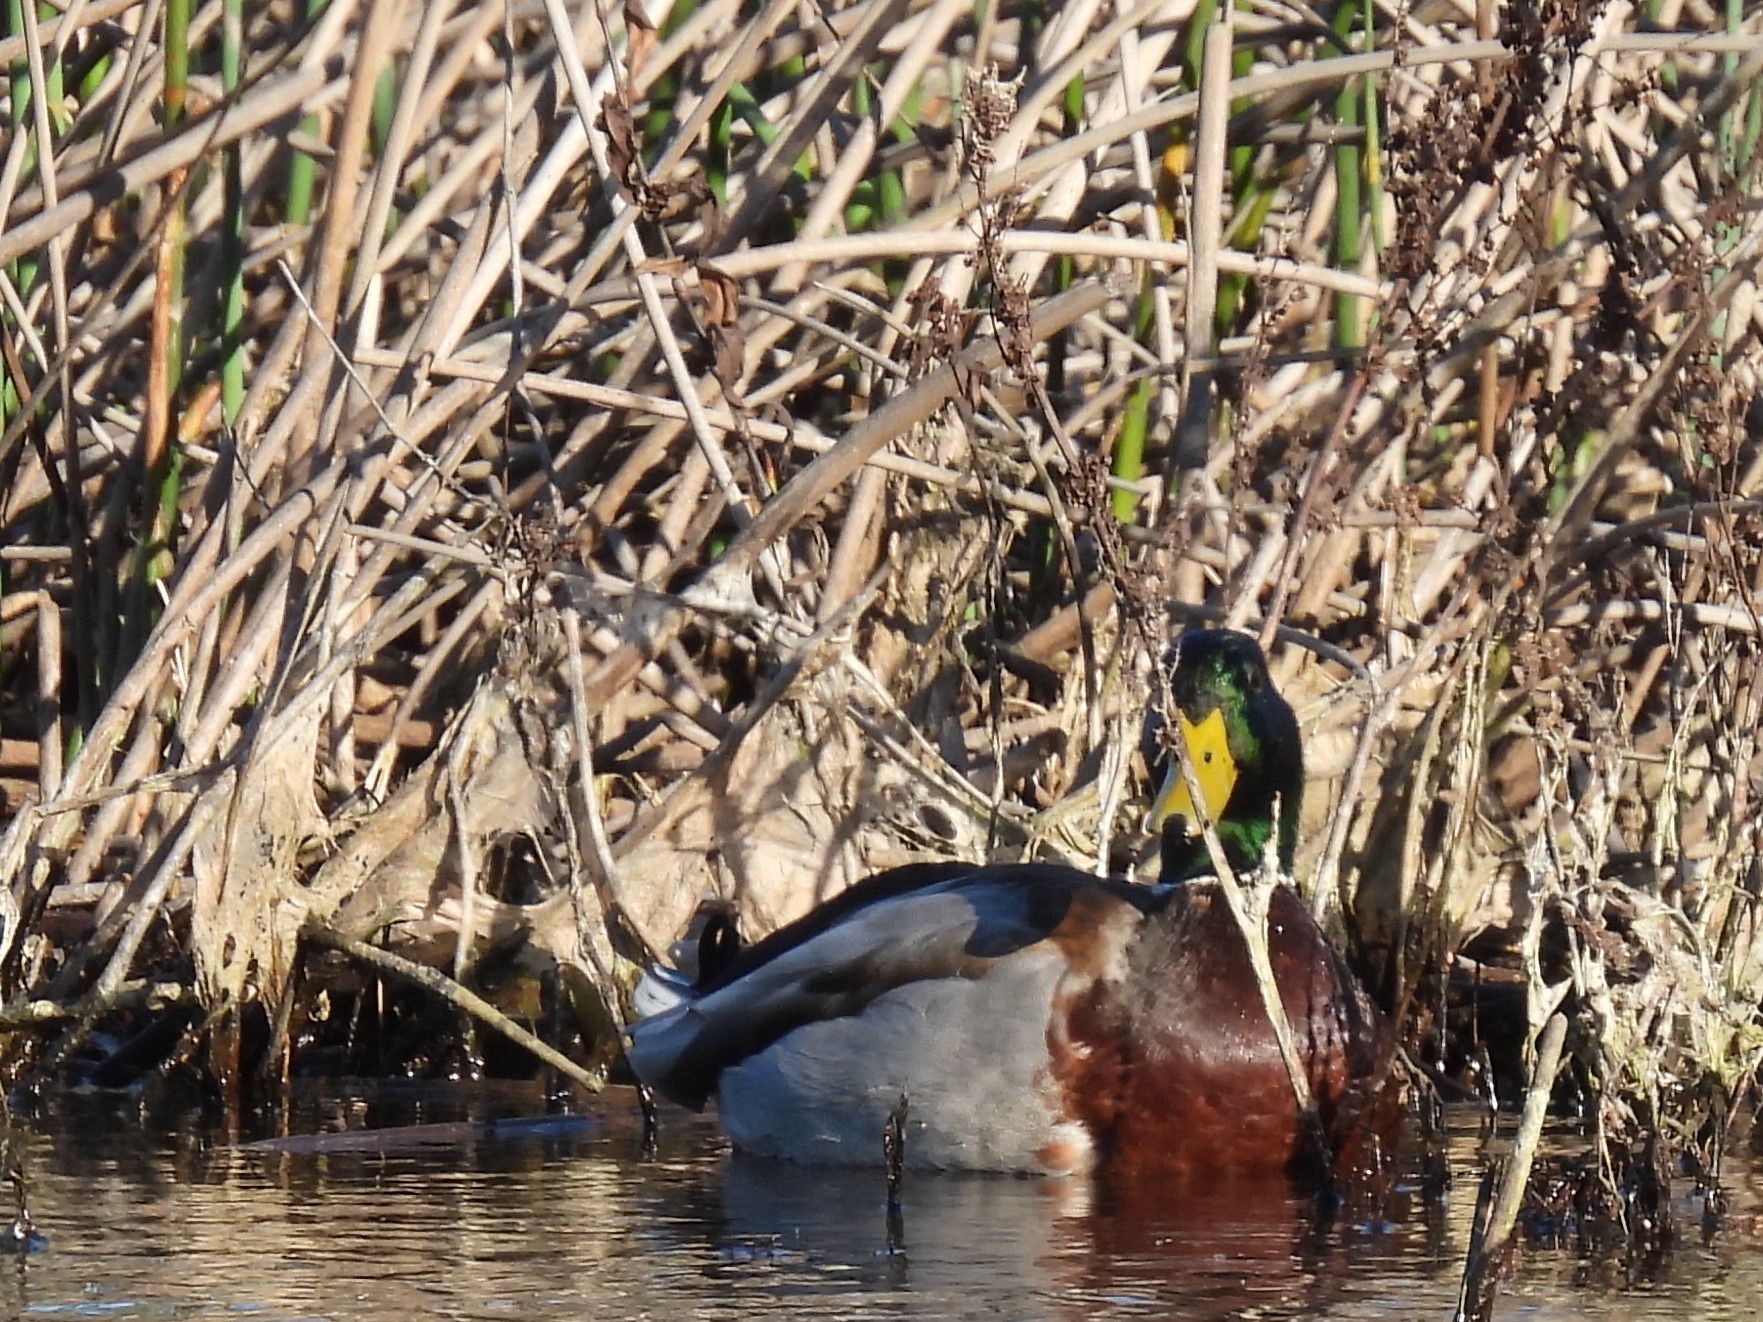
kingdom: Animalia
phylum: Chordata
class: Aves
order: Anseriformes
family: Anatidae
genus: Anas
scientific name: Anas platyrhynchos
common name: Mallard
